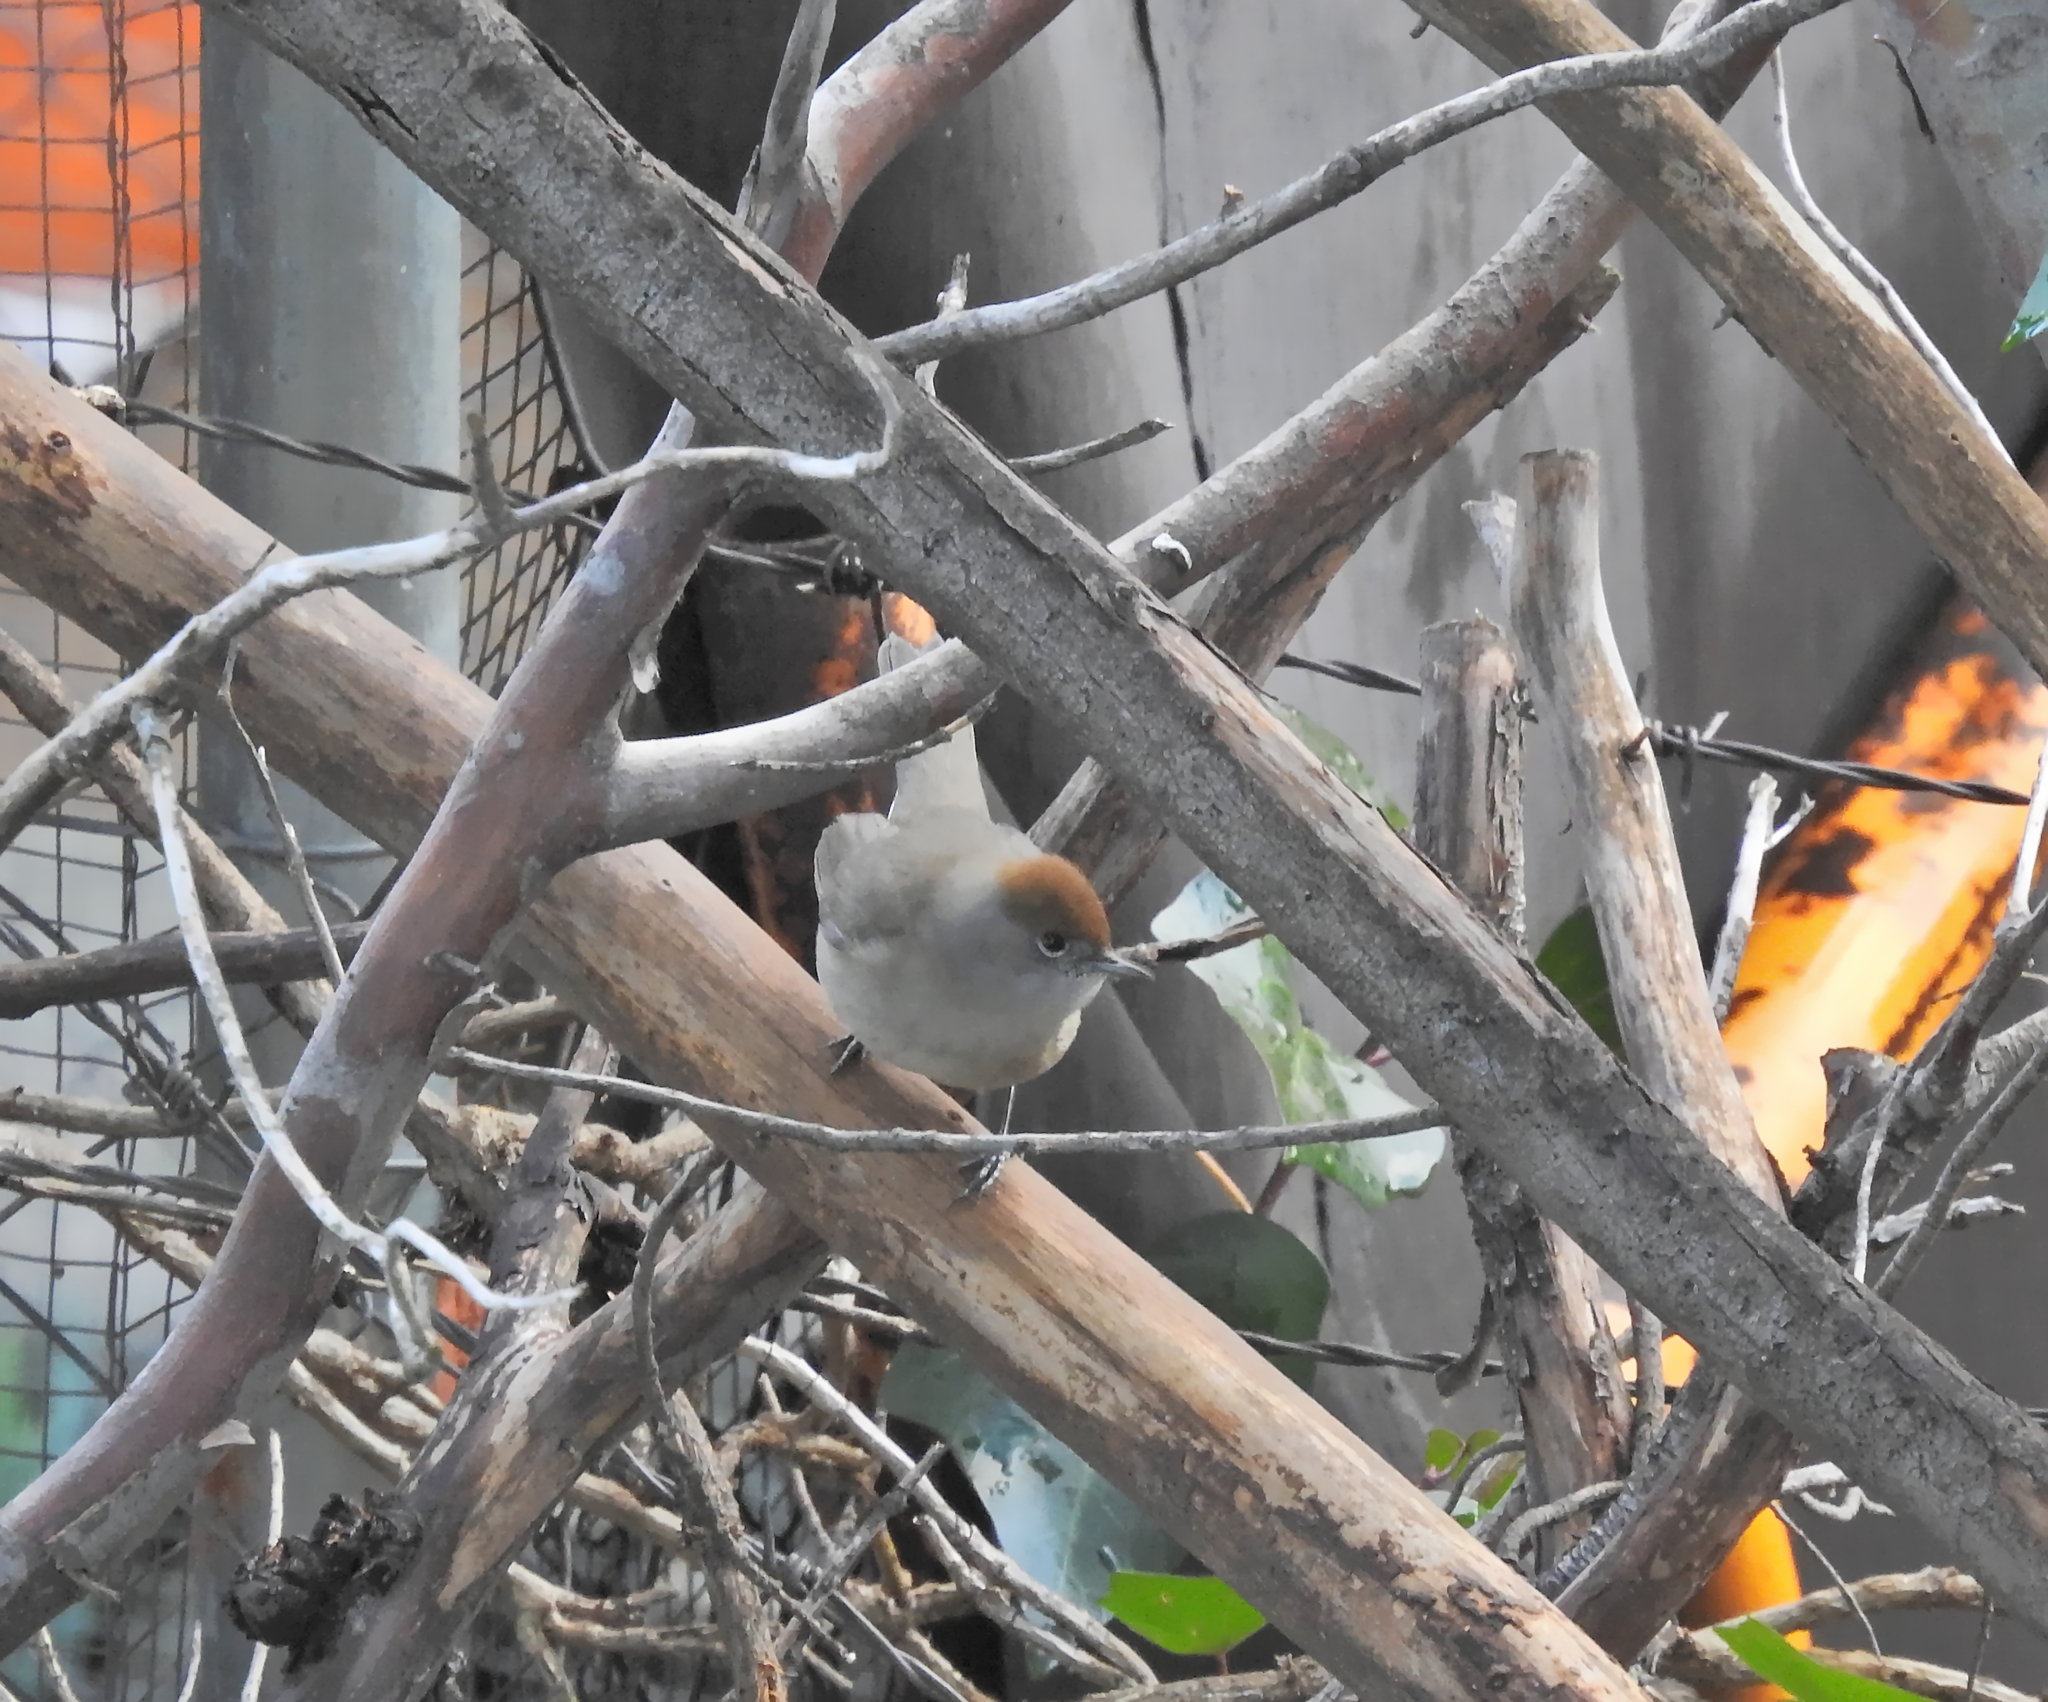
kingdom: Animalia
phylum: Chordata
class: Aves
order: Passeriformes
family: Sylviidae
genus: Sylvia
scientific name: Sylvia atricapilla
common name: Eurasian blackcap
